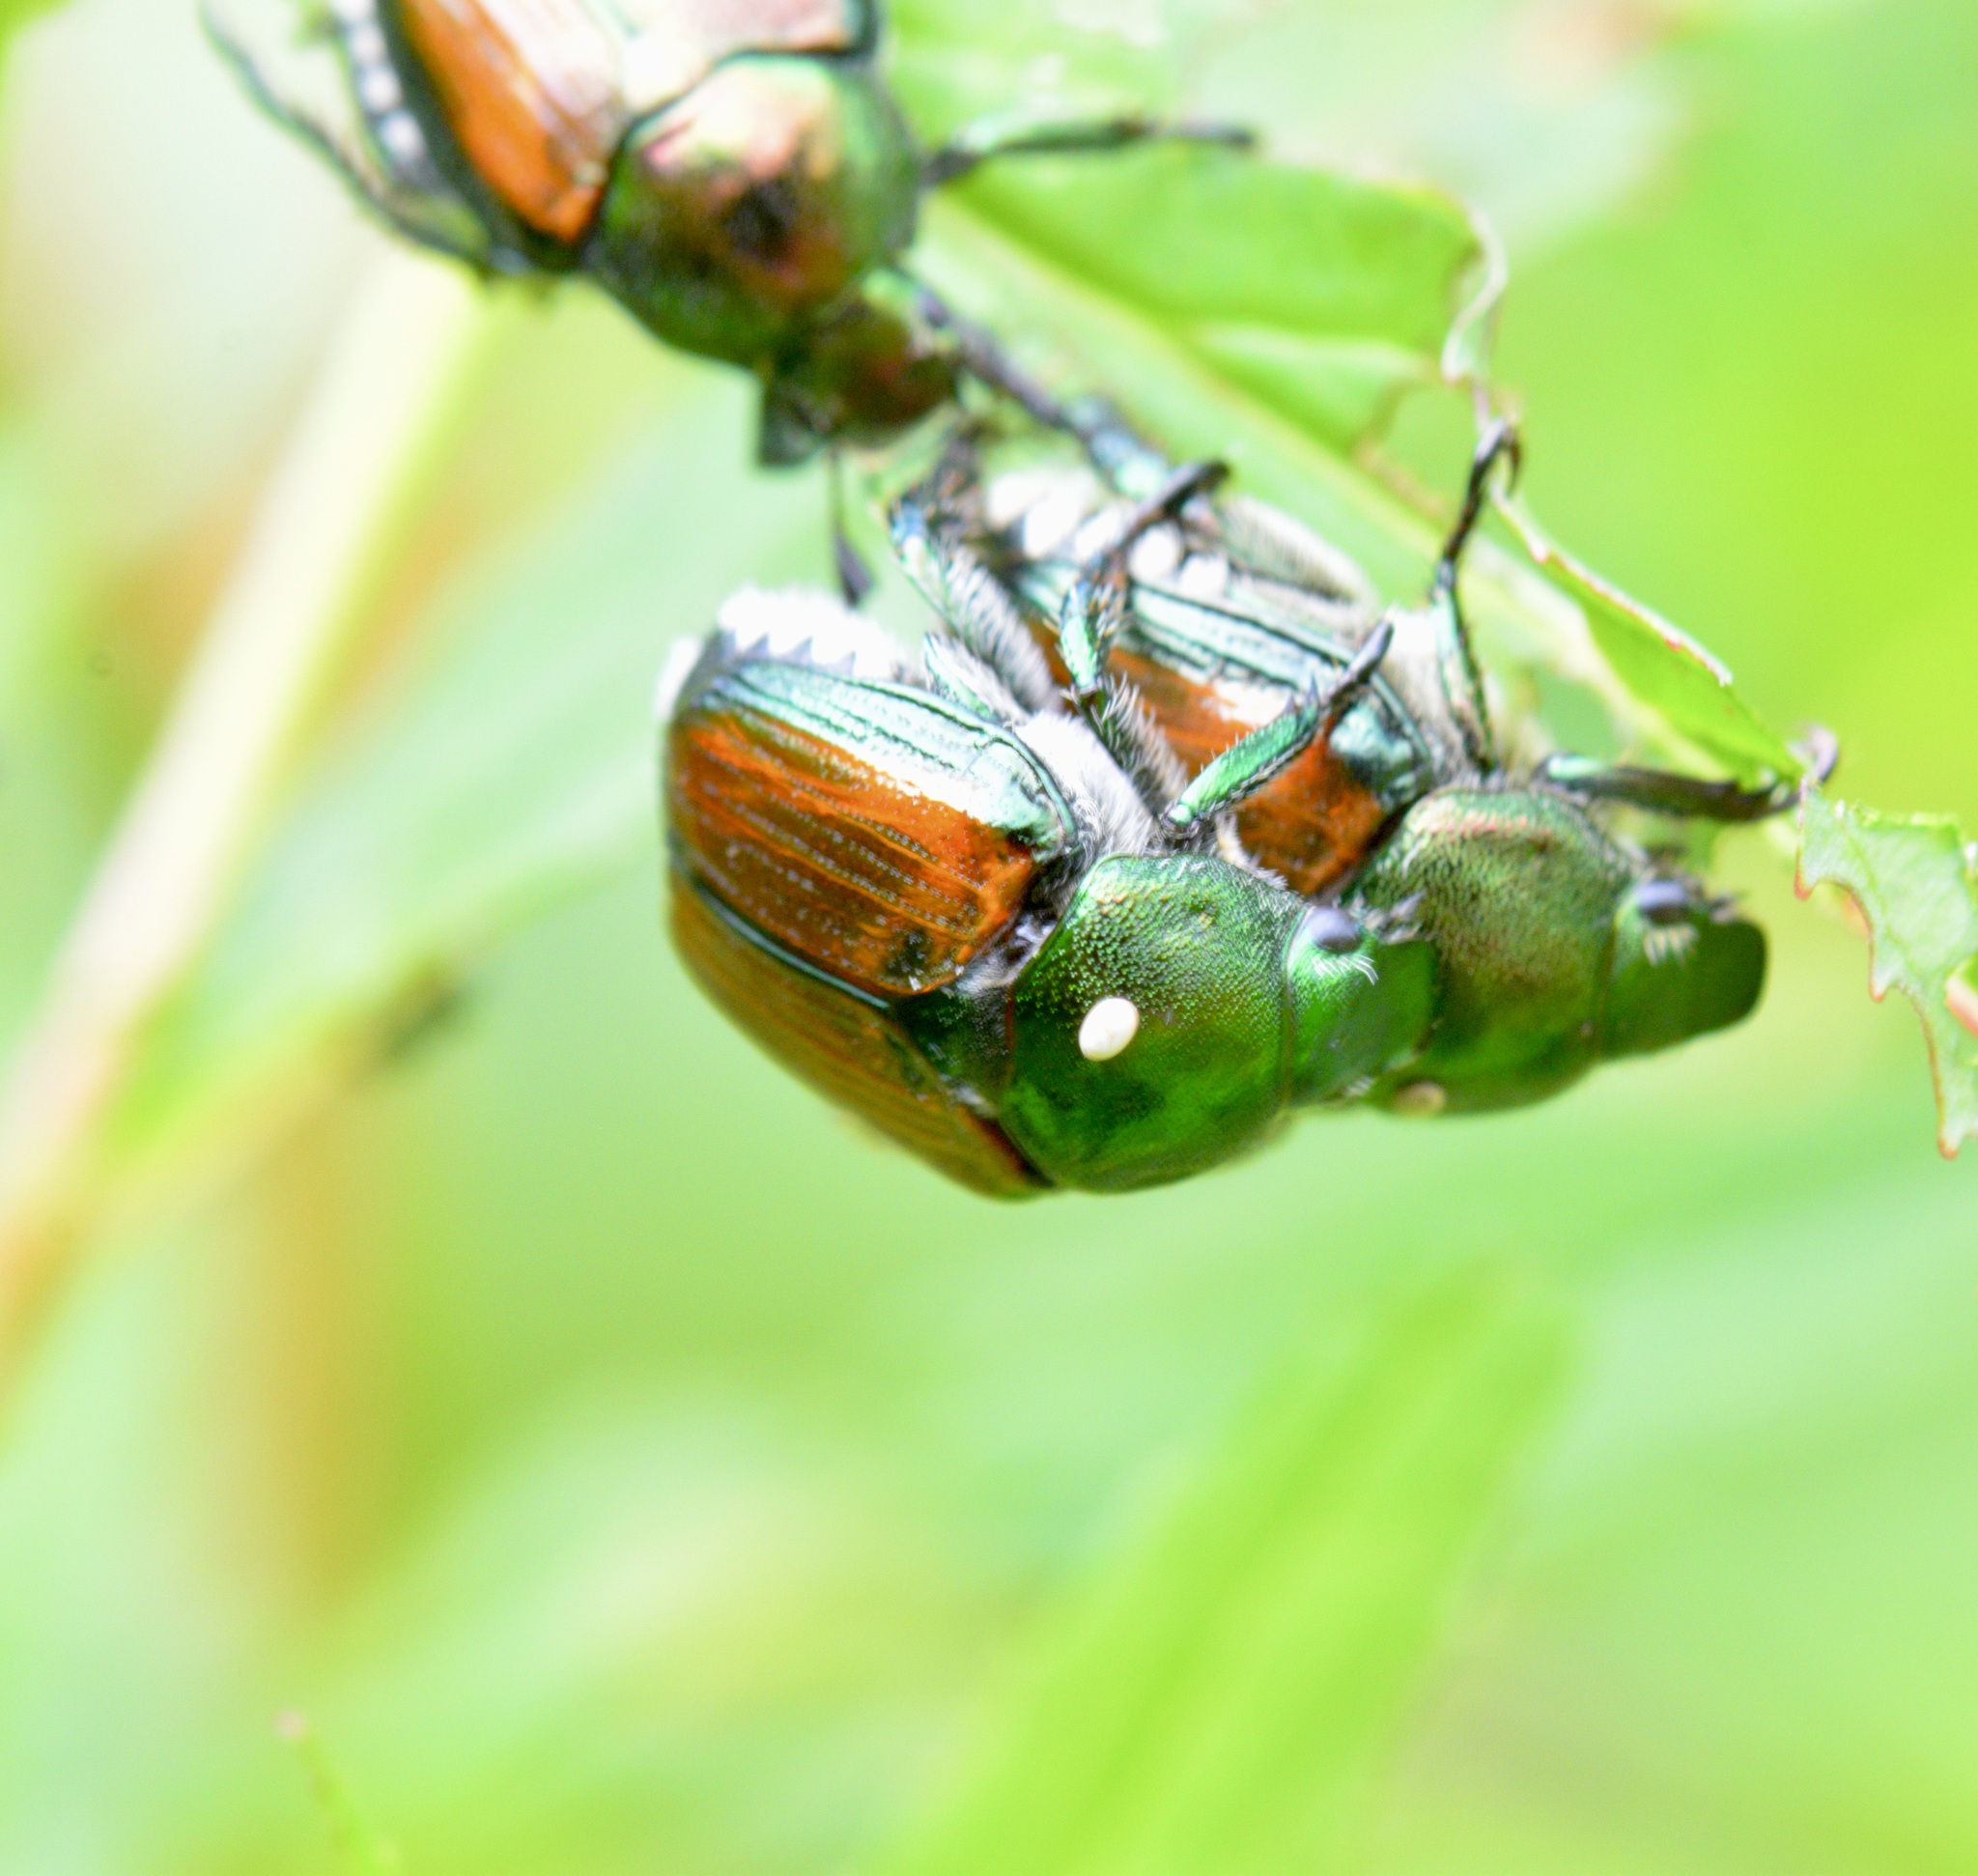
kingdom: Animalia
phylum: Arthropoda
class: Insecta
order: Coleoptera
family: Scarabaeidae
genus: Popillia
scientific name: Popillia japonica
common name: Japanese beetle
